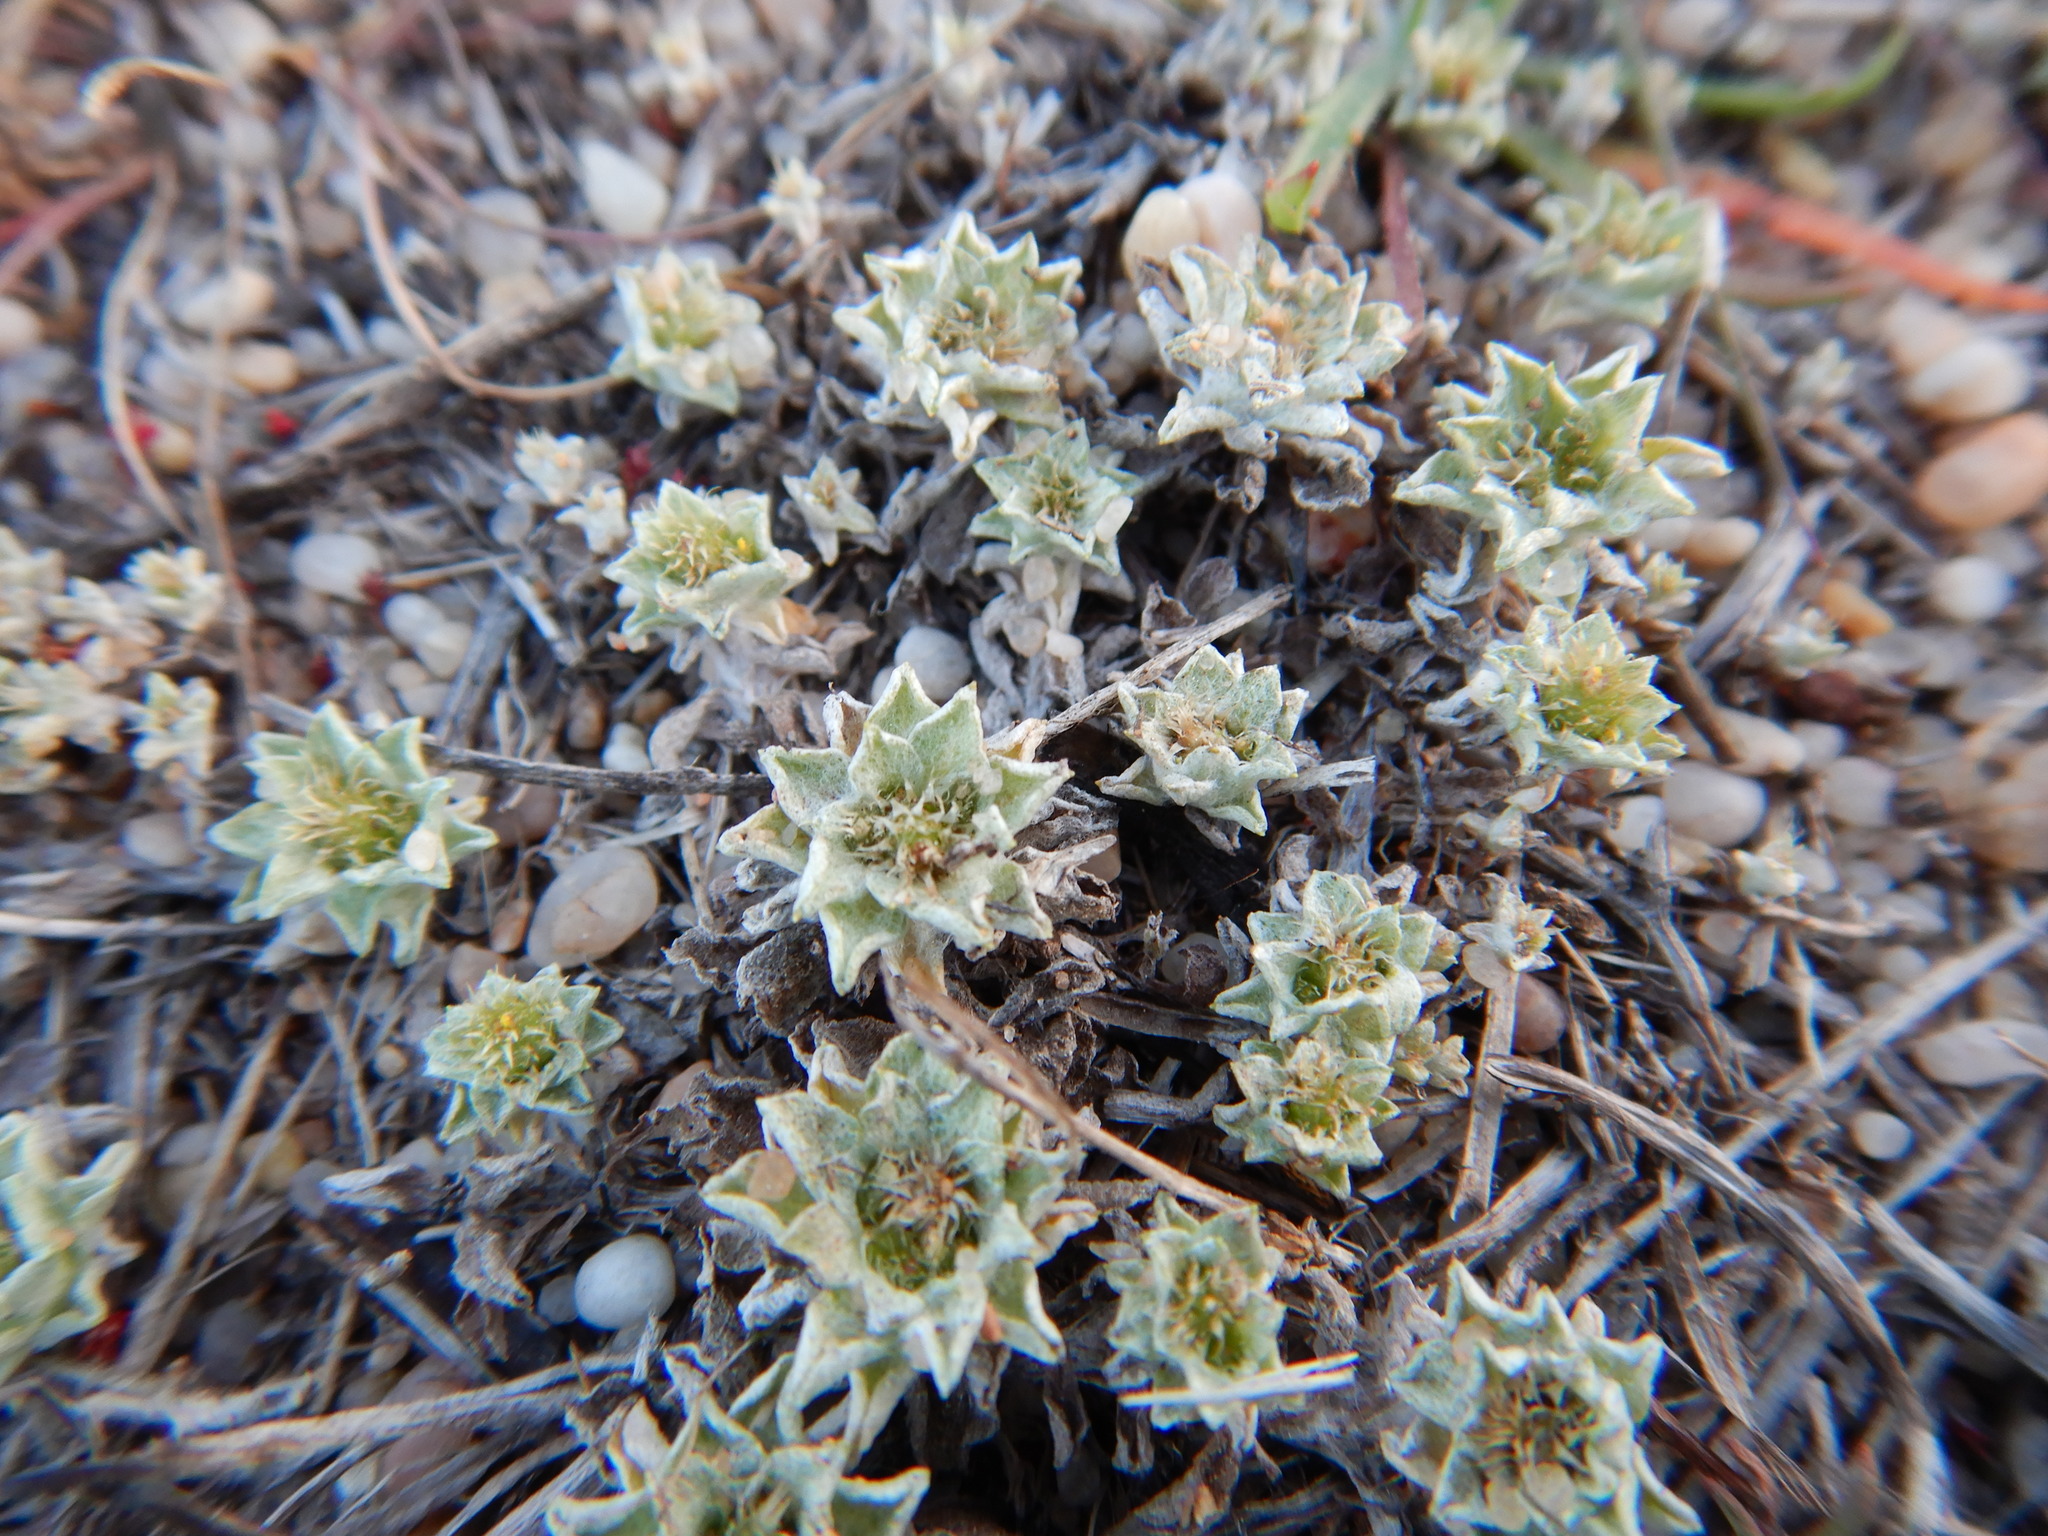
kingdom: Plantae
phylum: Tracheophyta
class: Magnoliopsida
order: Asterales
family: Asteraceae
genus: Filago
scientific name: Filago pygmaea
